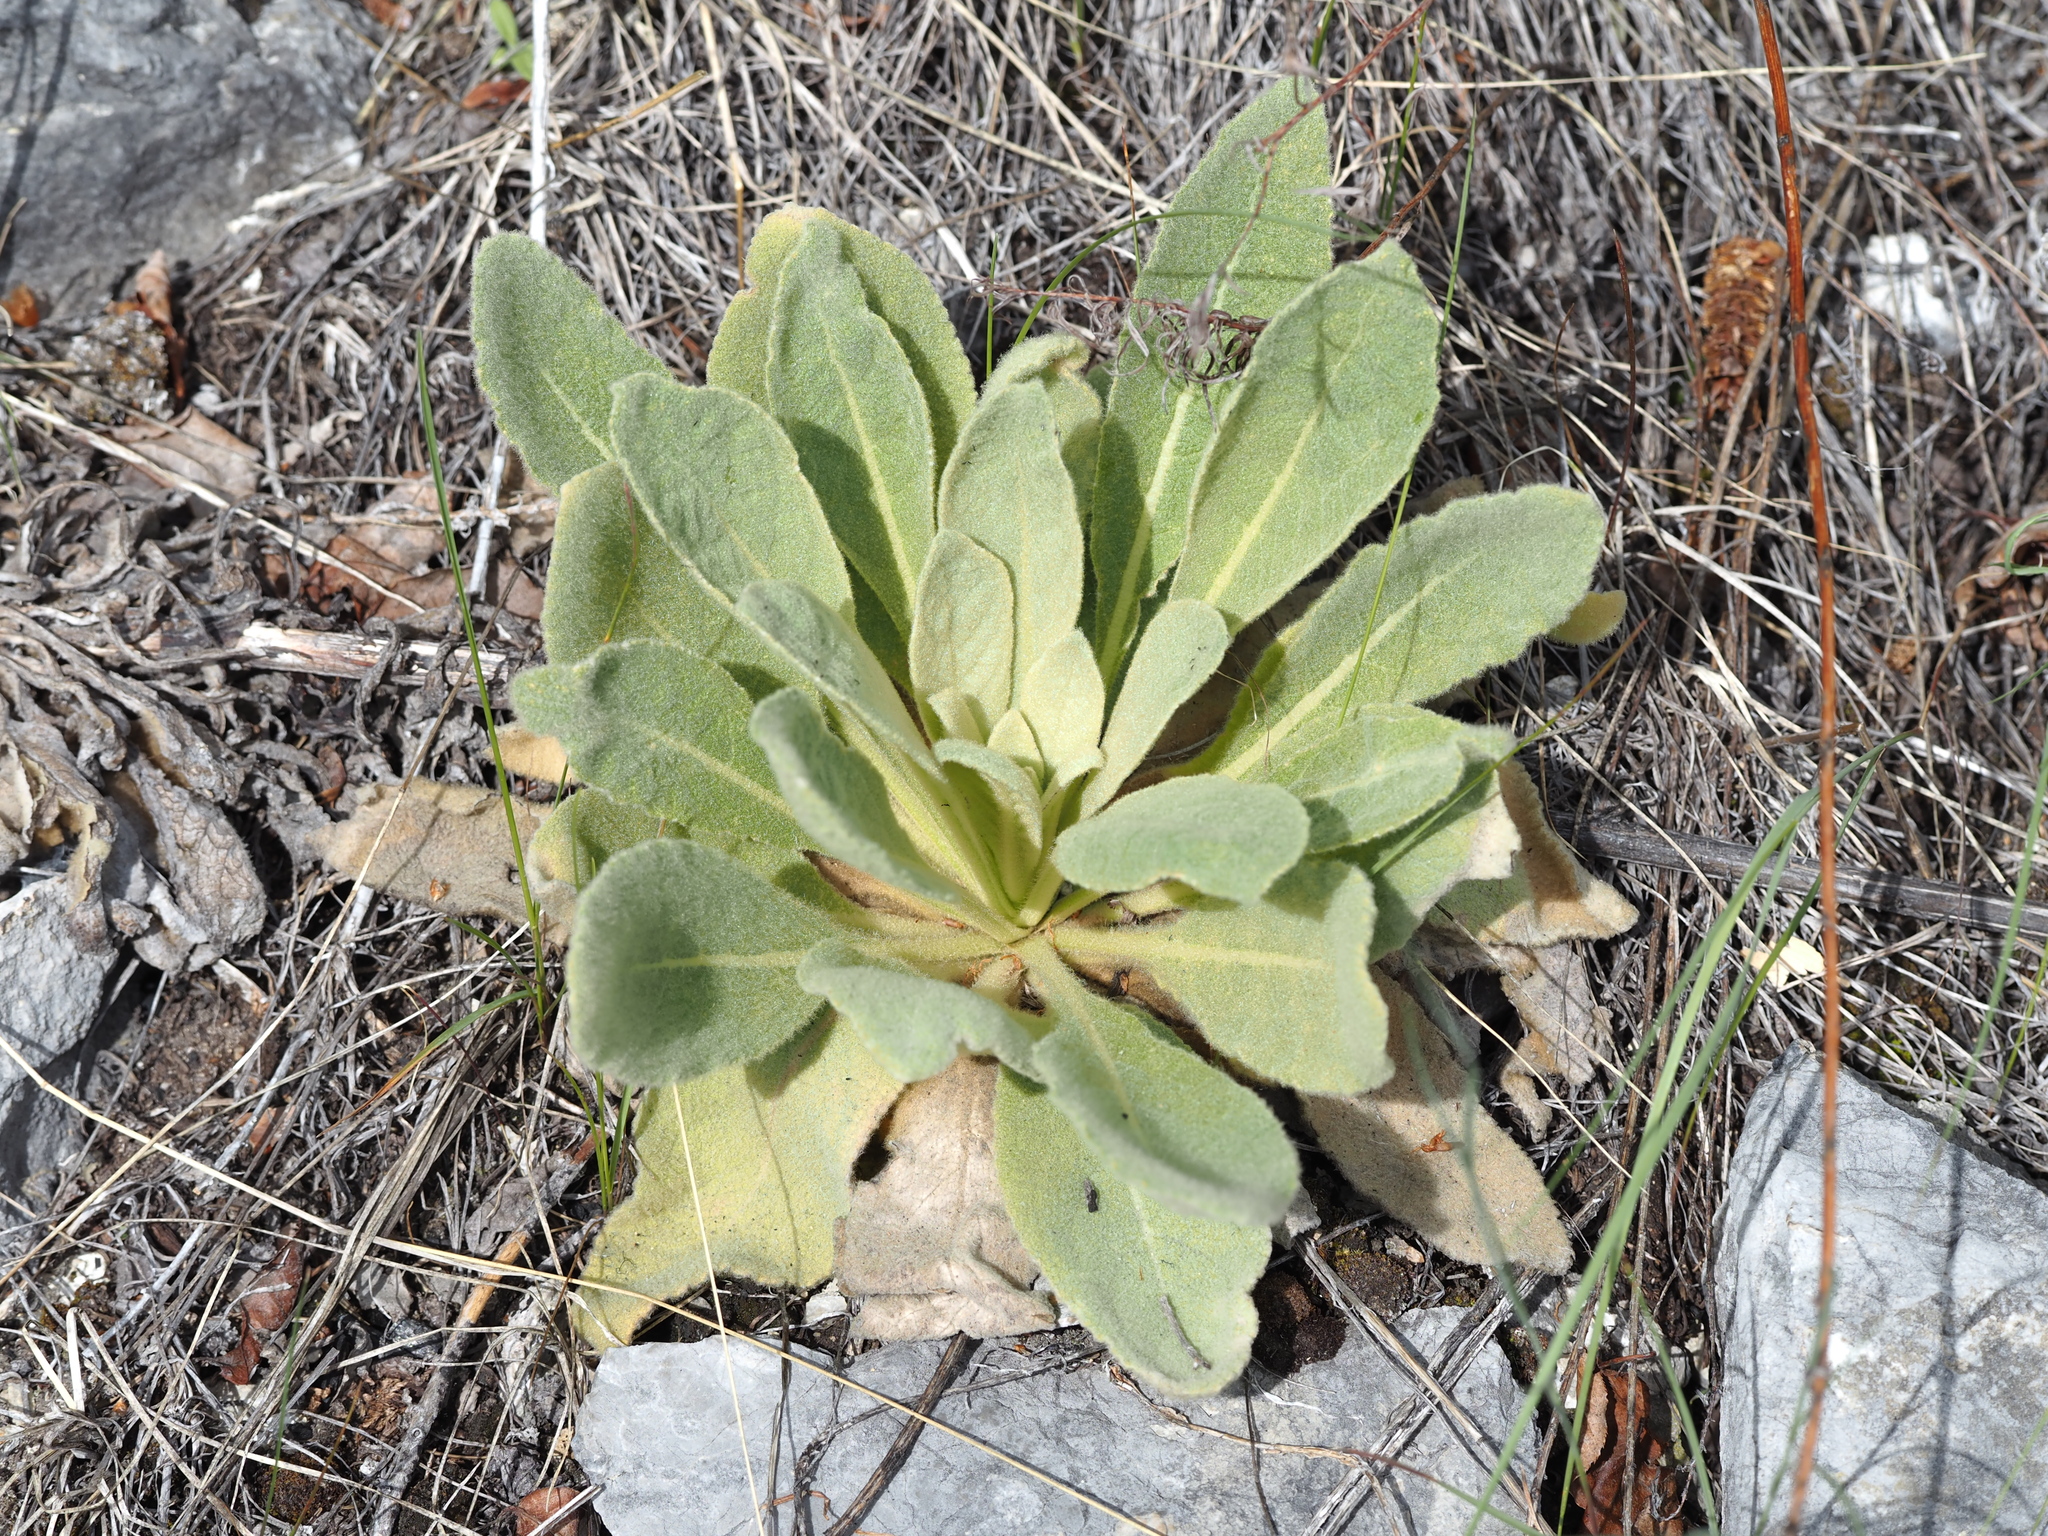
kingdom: Plantae
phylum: Tracheophyta
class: Magnoliopsida
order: Lamiales
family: Scrophulariaceae
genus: Verbascum
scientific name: Verbascum thapsus
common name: Common mullein
